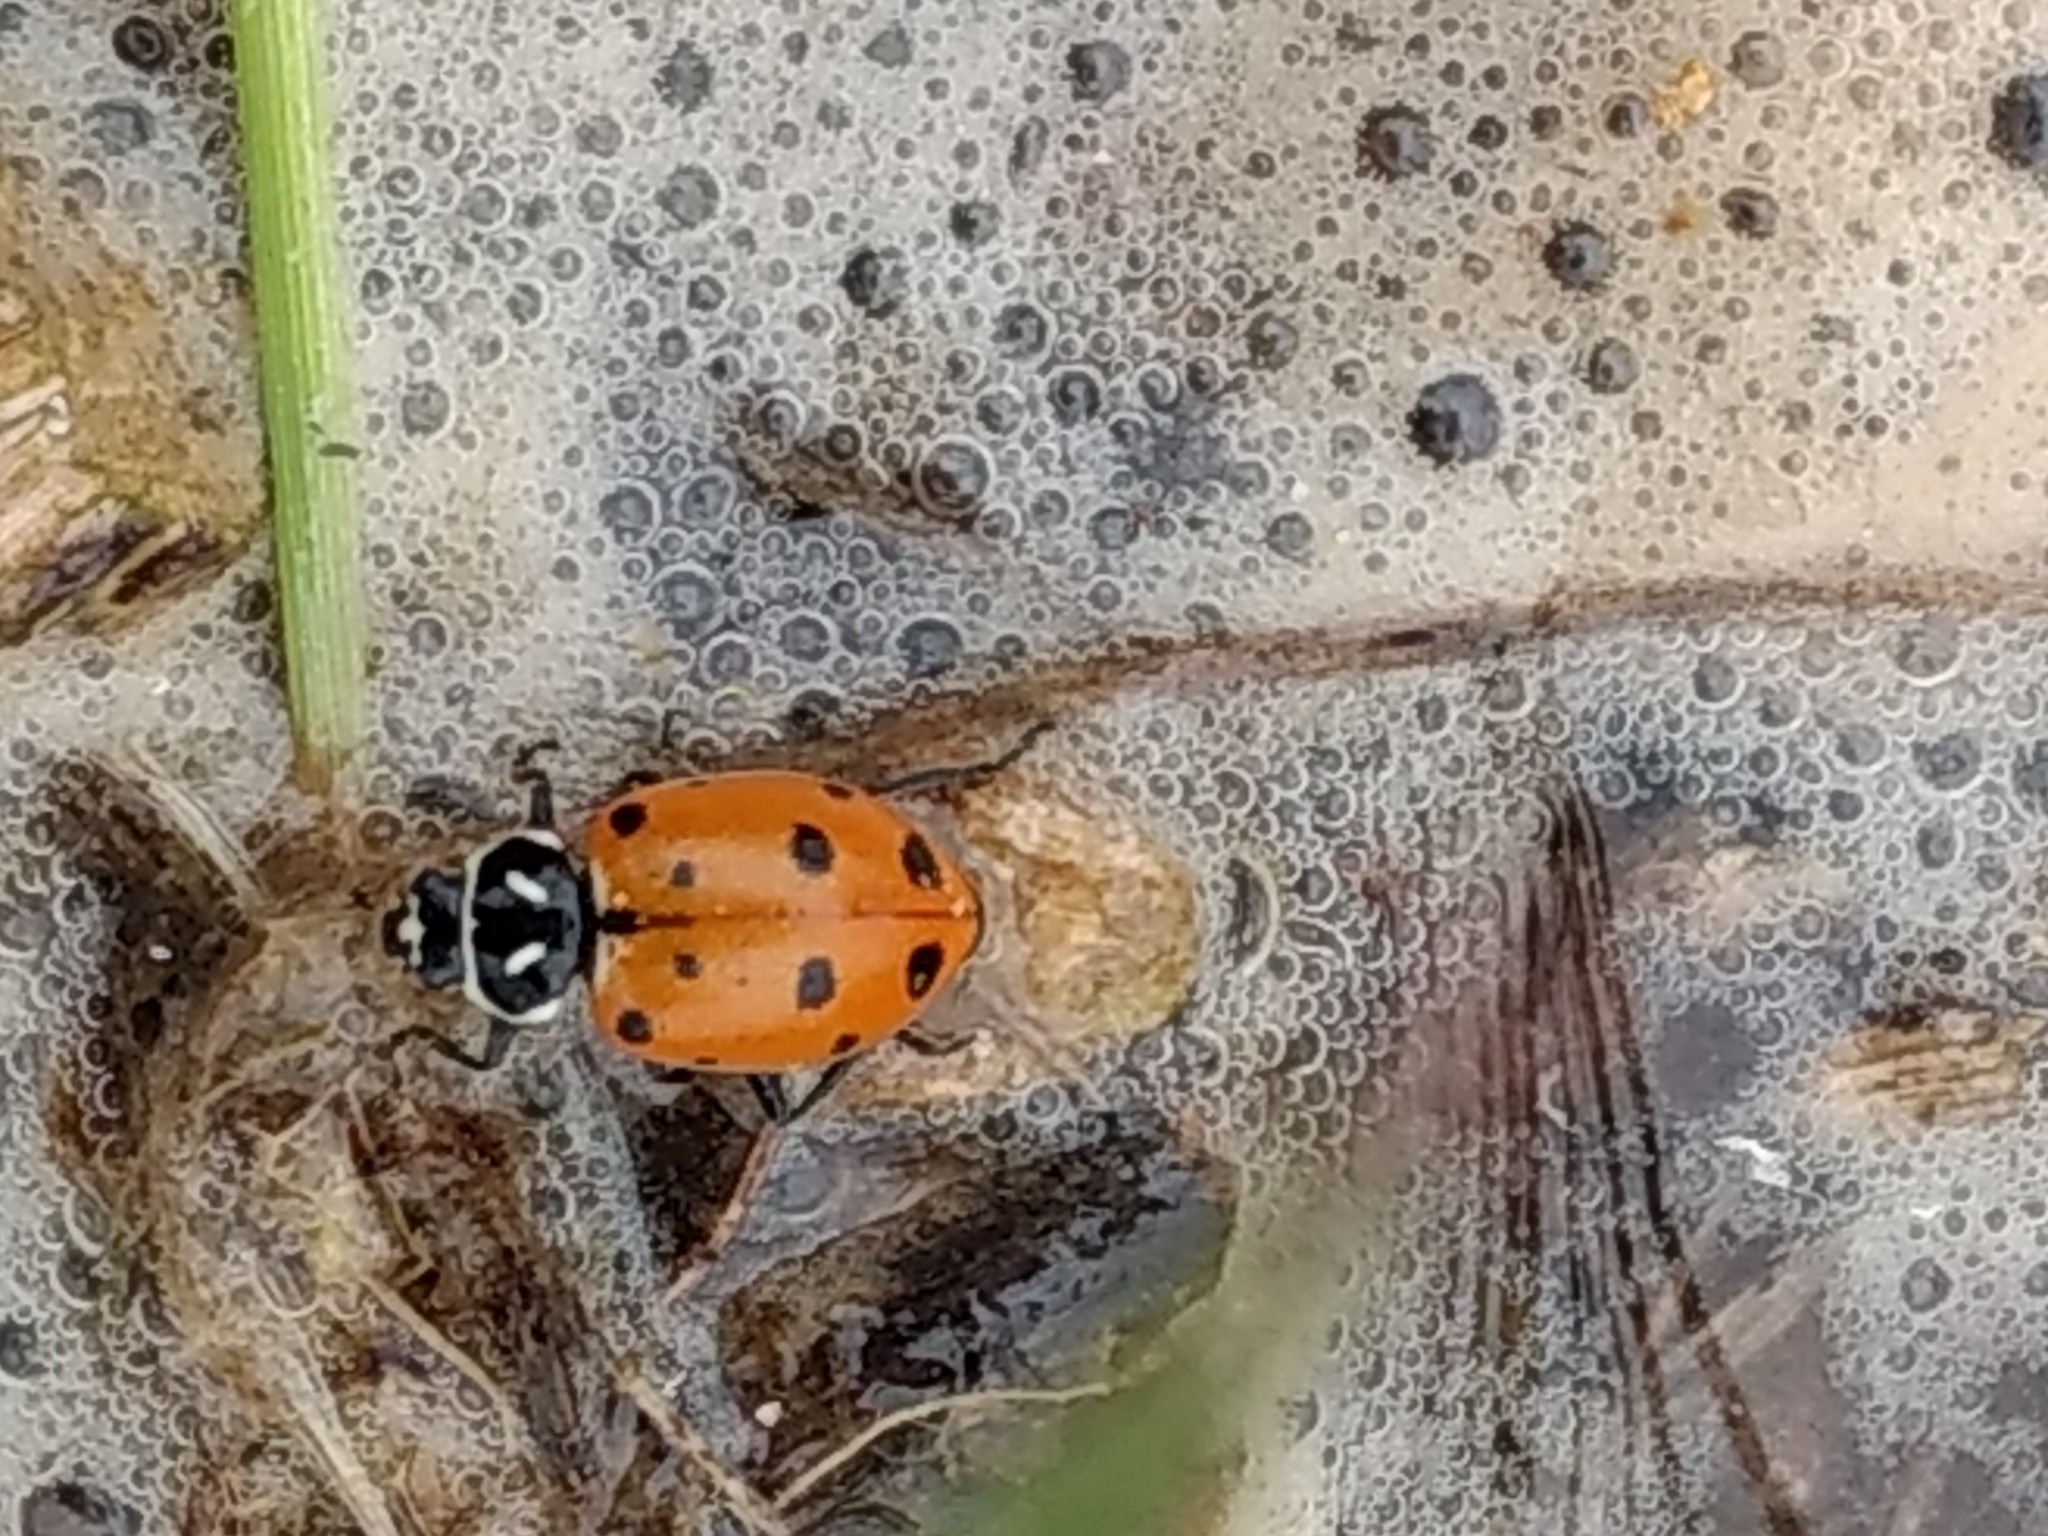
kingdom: Animalia
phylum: Arthropoda
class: Insecta
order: Coleoptera
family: Coccinellidae
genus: Hippodamia
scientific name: Hippodamia convergens
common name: Convergent lady beetle
